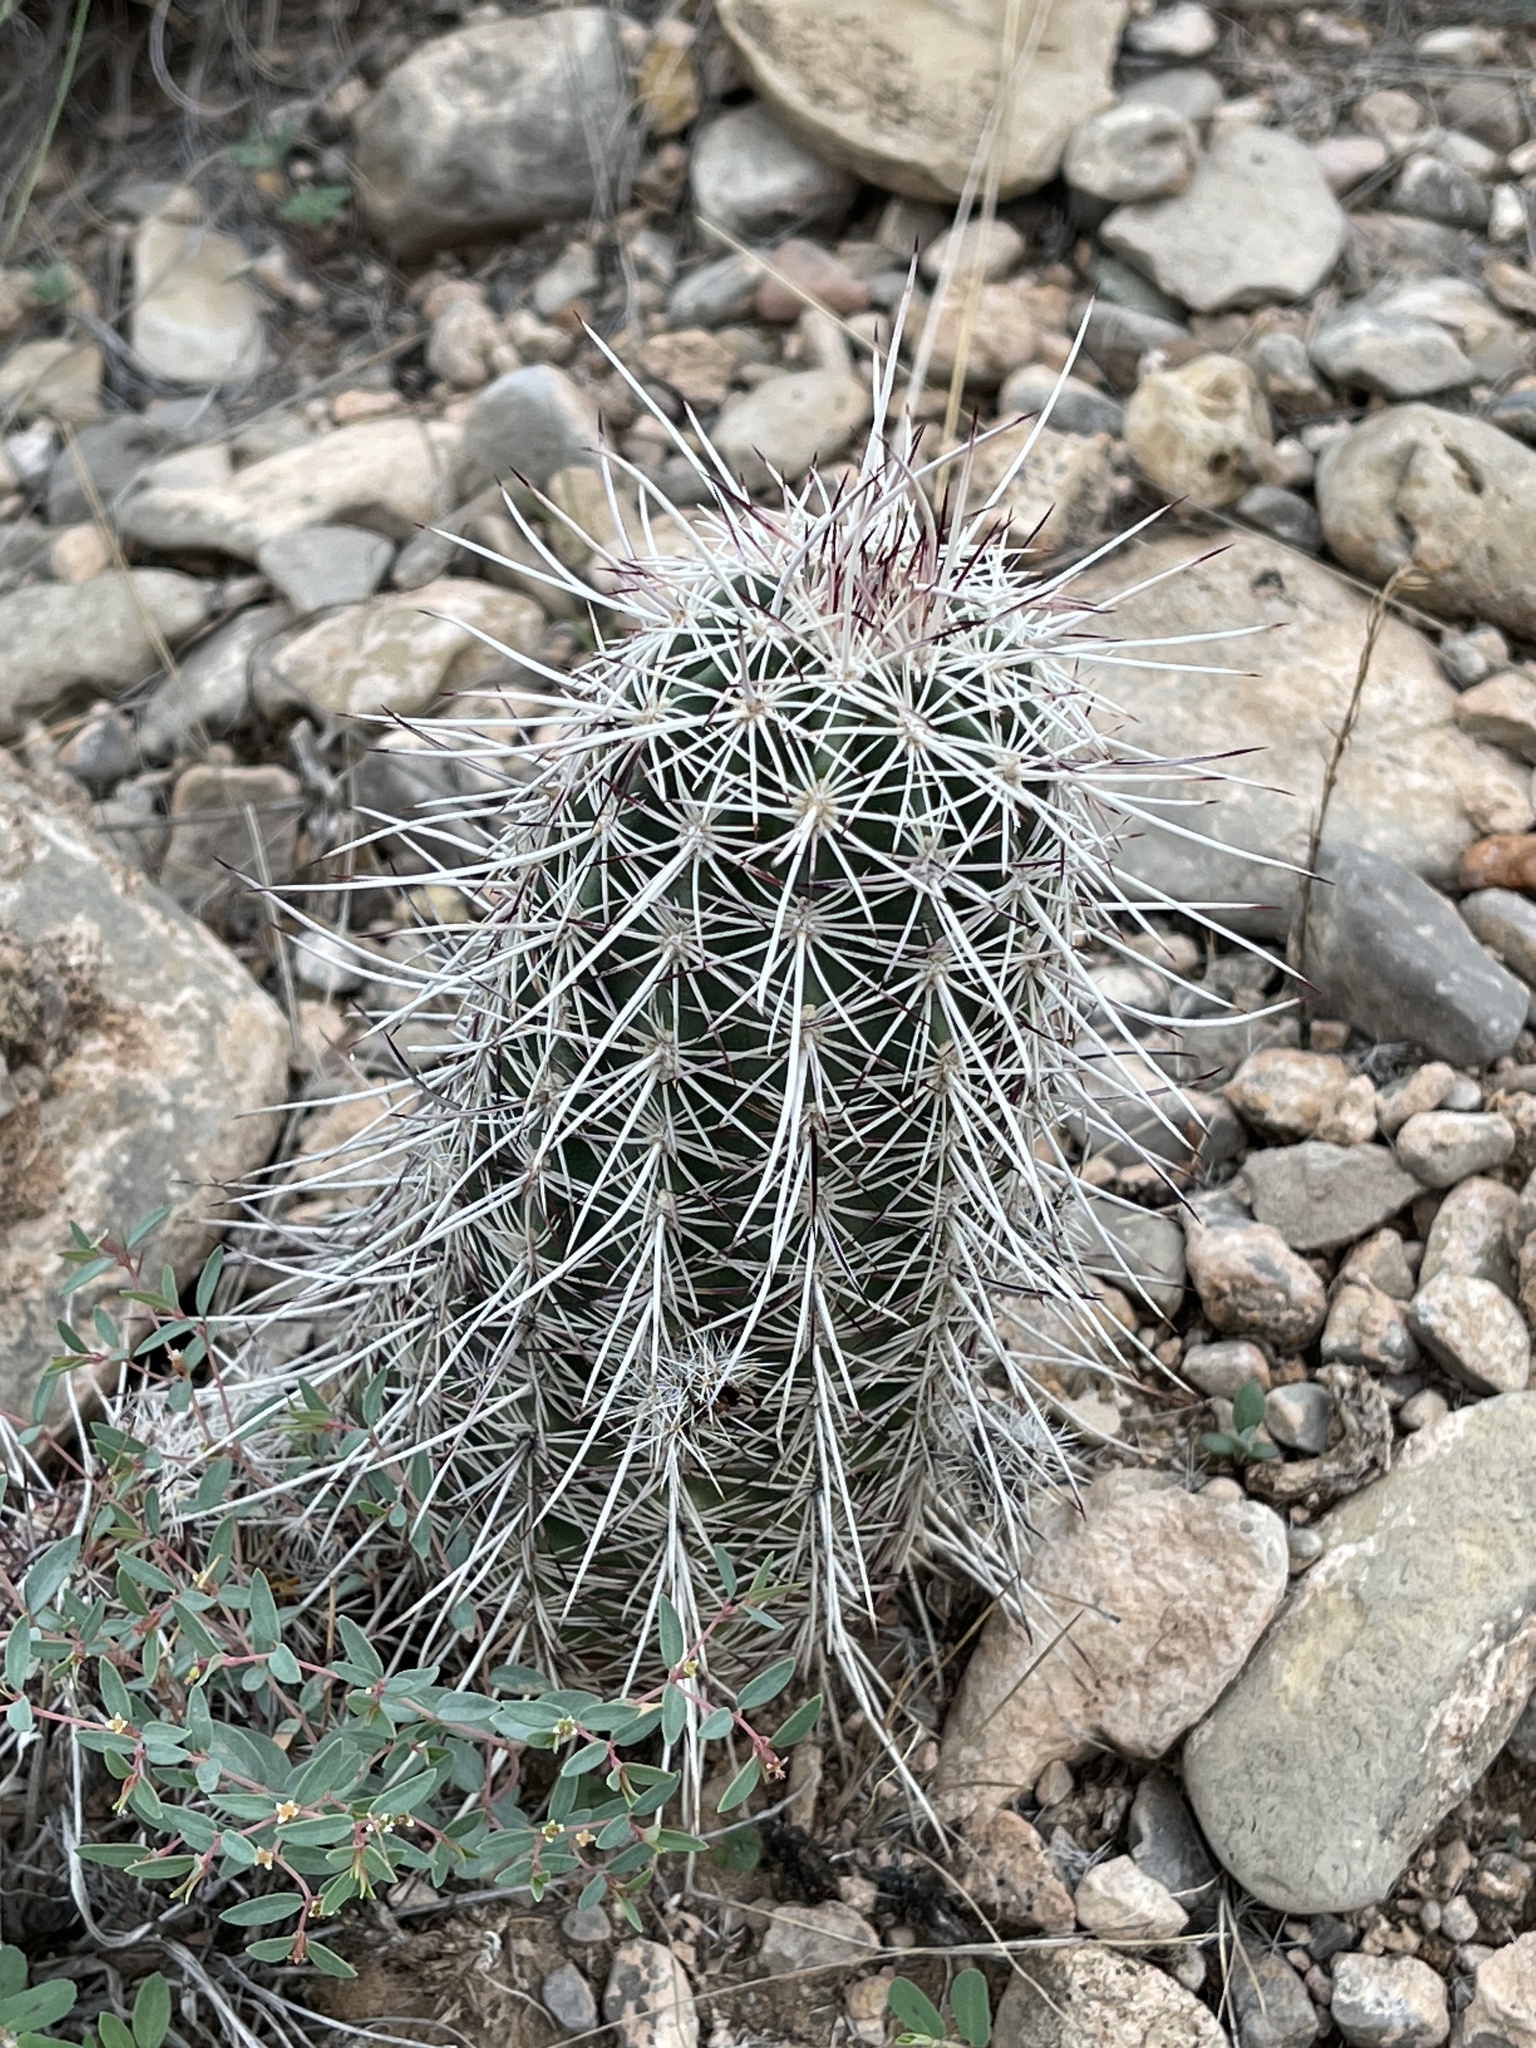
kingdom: Plantae
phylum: Tracheophyta
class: Magnoliopsida
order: Caryophyllales
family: Cactaceae
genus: Echinocereus
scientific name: Echinocereus viridiflorus
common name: Nylon hedgehog cactus
